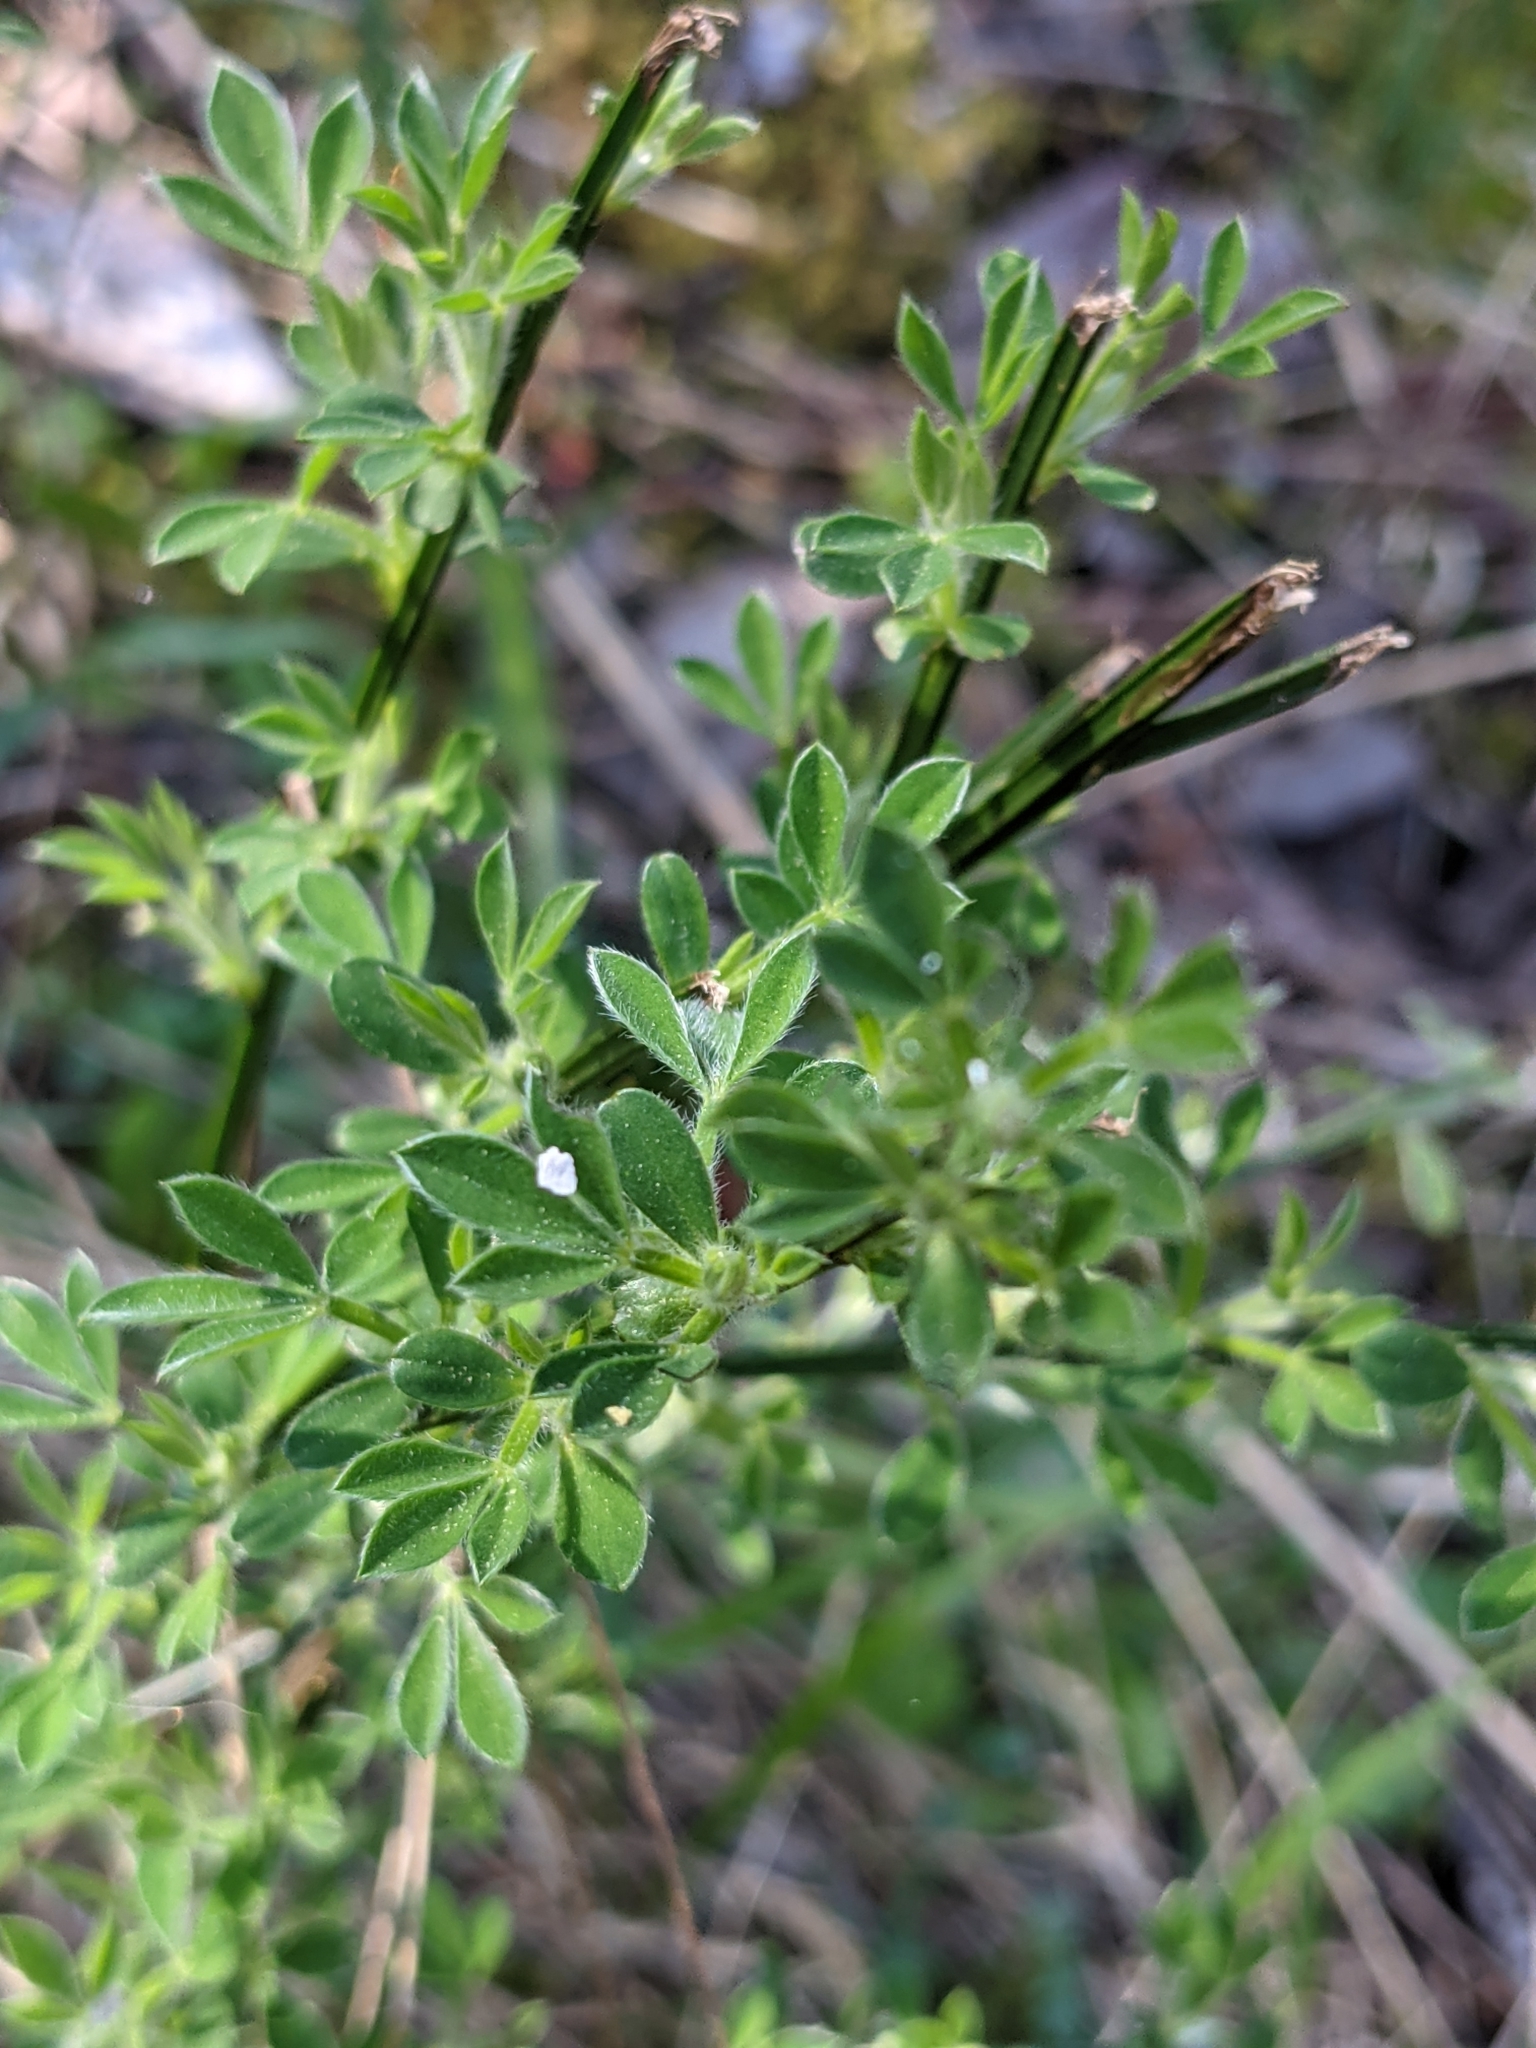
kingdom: Plantae
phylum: Tracheophyta
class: Magnoliopsida
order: Fabales
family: Fabaceae
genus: Cytisus
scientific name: Cytisus scoparius
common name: Scotch broom
